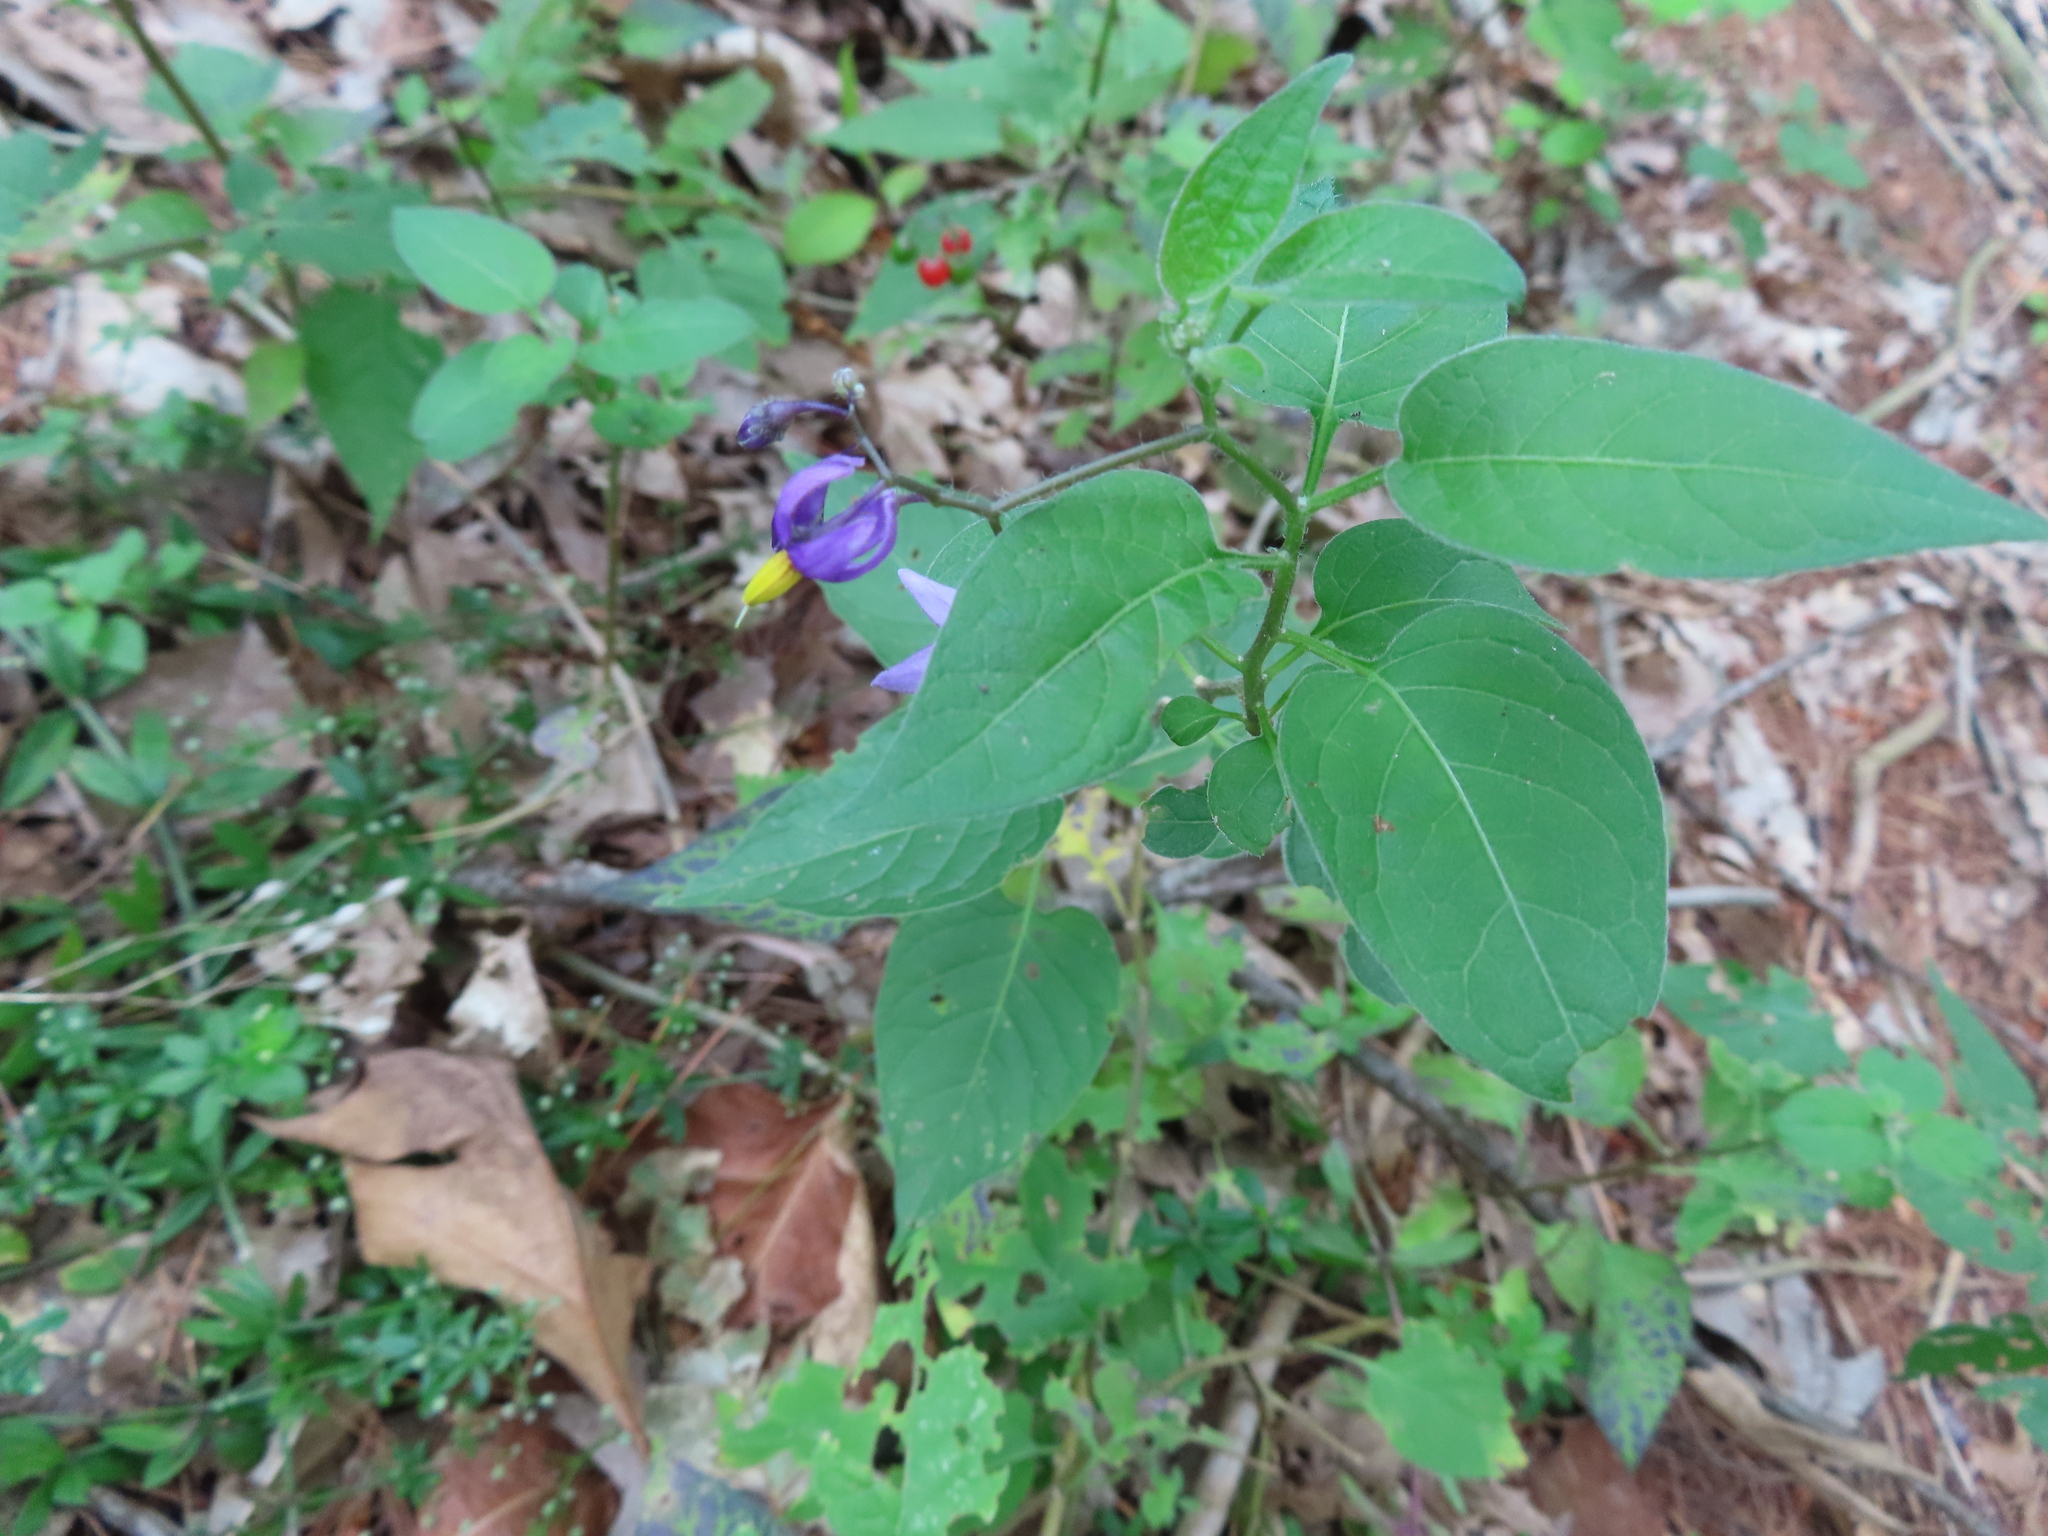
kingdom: Plantae
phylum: Tracheophyta
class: Magnoliopsida
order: Solanales
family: Solanaceae
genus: Solanum
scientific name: Solanum dulcamara
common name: Climbing nightshade
